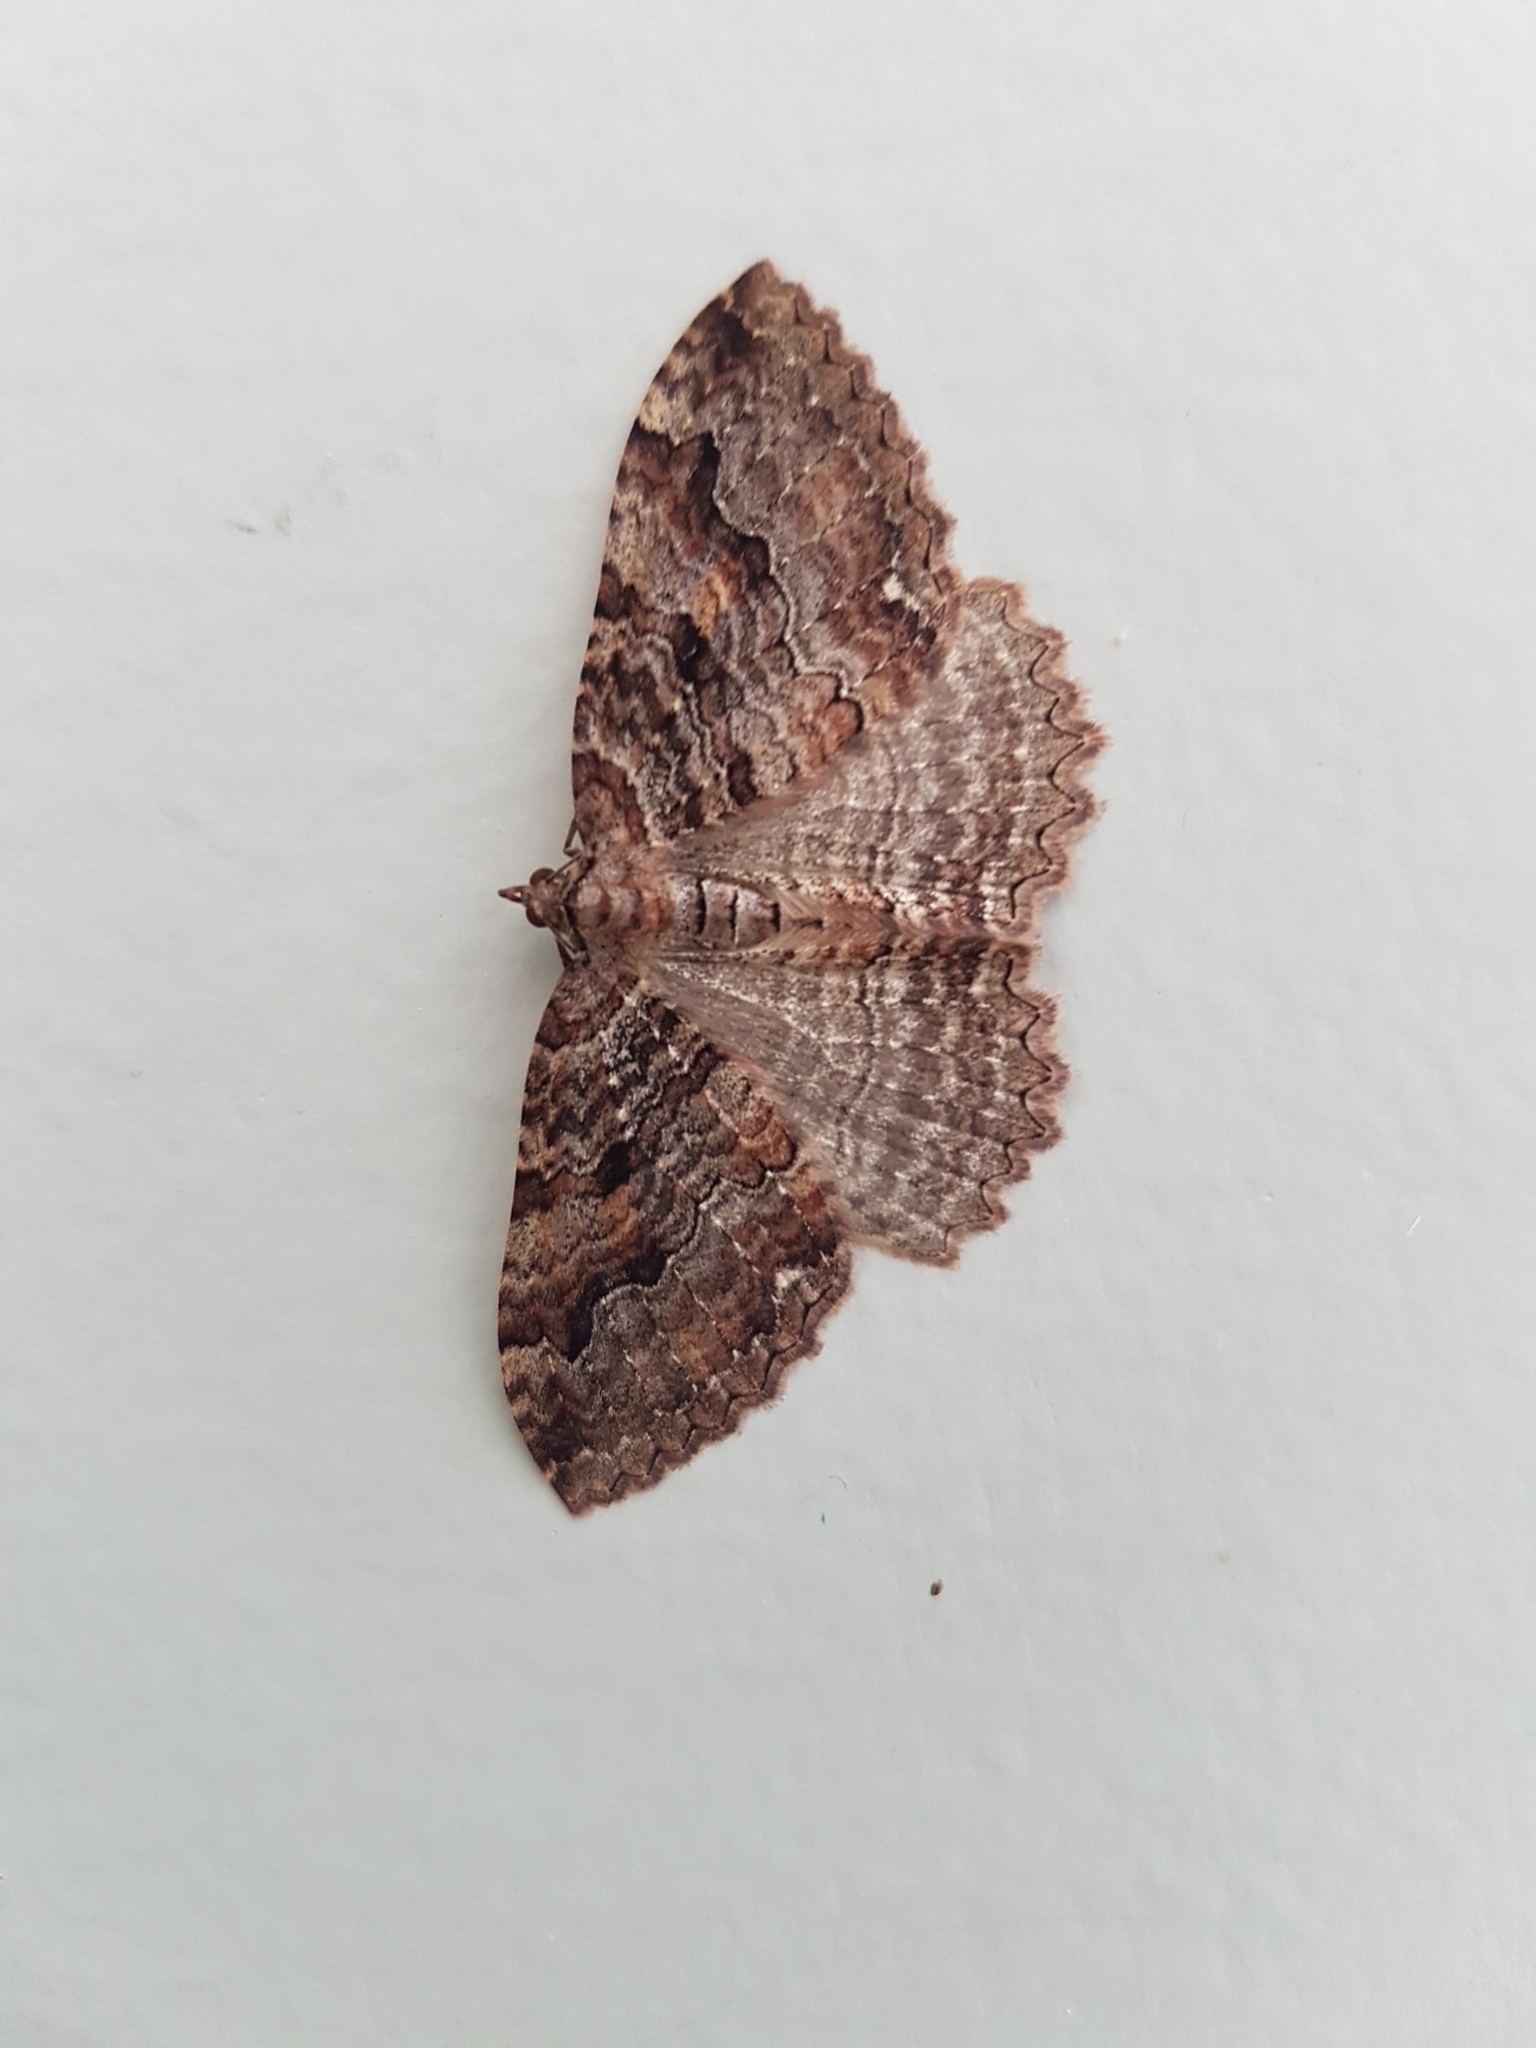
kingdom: Animalia
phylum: Arthropoda
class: Insecta
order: Lepidoptera
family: Geometridae
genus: Triphosa
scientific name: Triphosa haesitata
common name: Tissue moth
